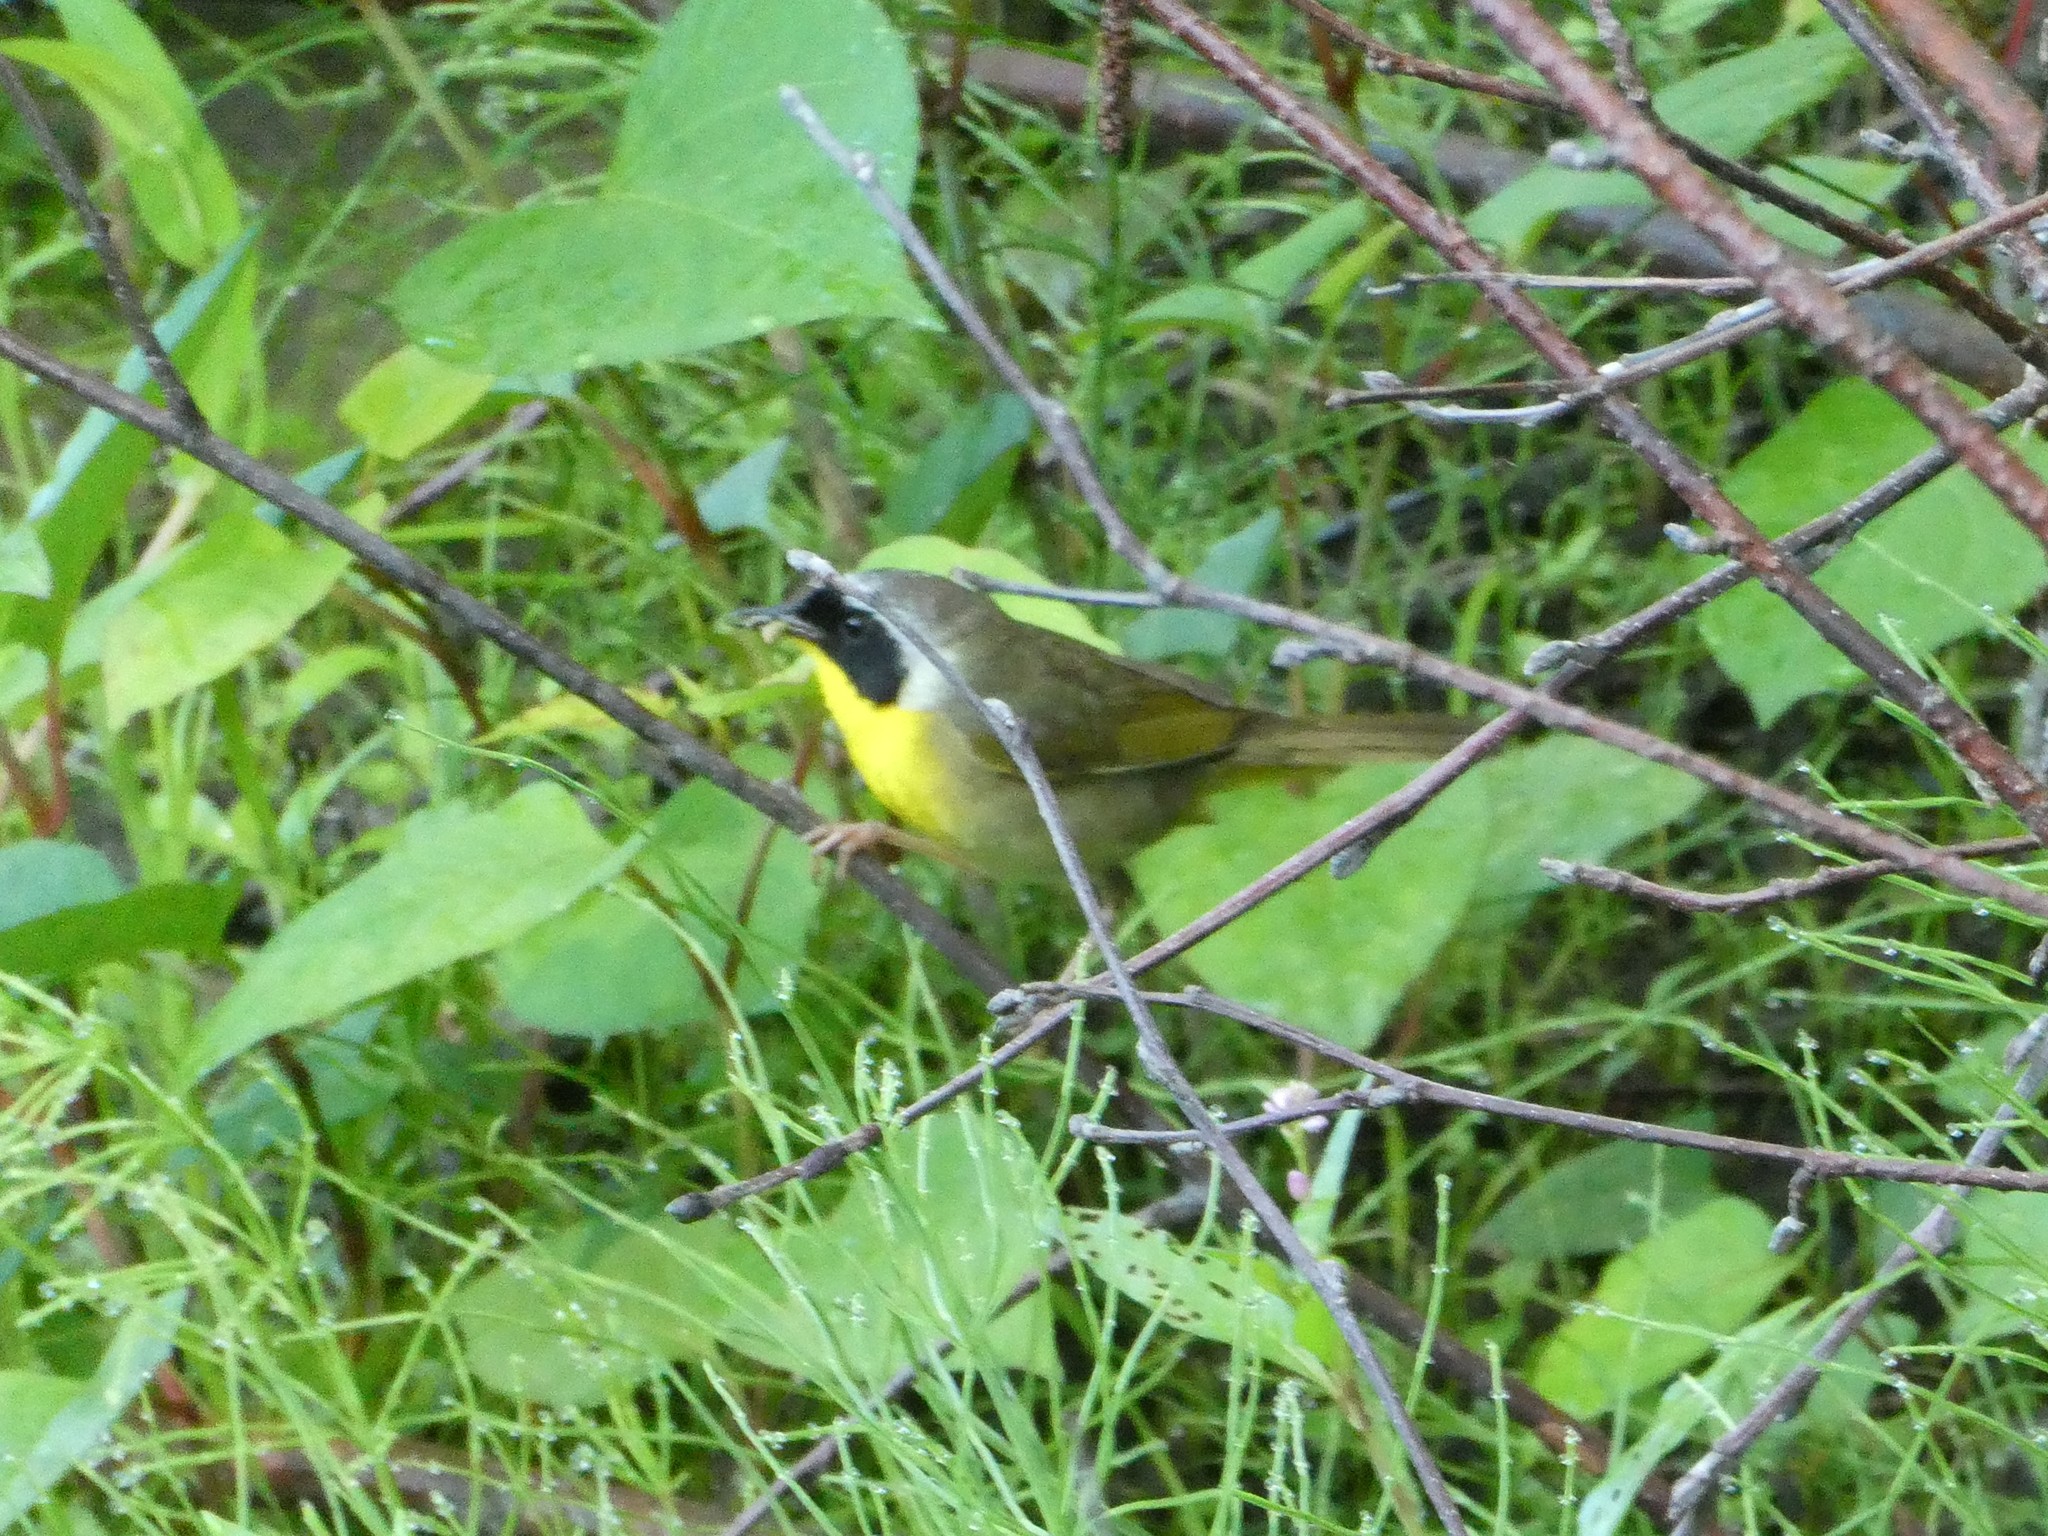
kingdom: Animalia
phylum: Chordata
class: Aves
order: Passeriformes
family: Parulidae
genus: Geothlypis
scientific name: Geothlypis trichas
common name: Common yellowthroat
